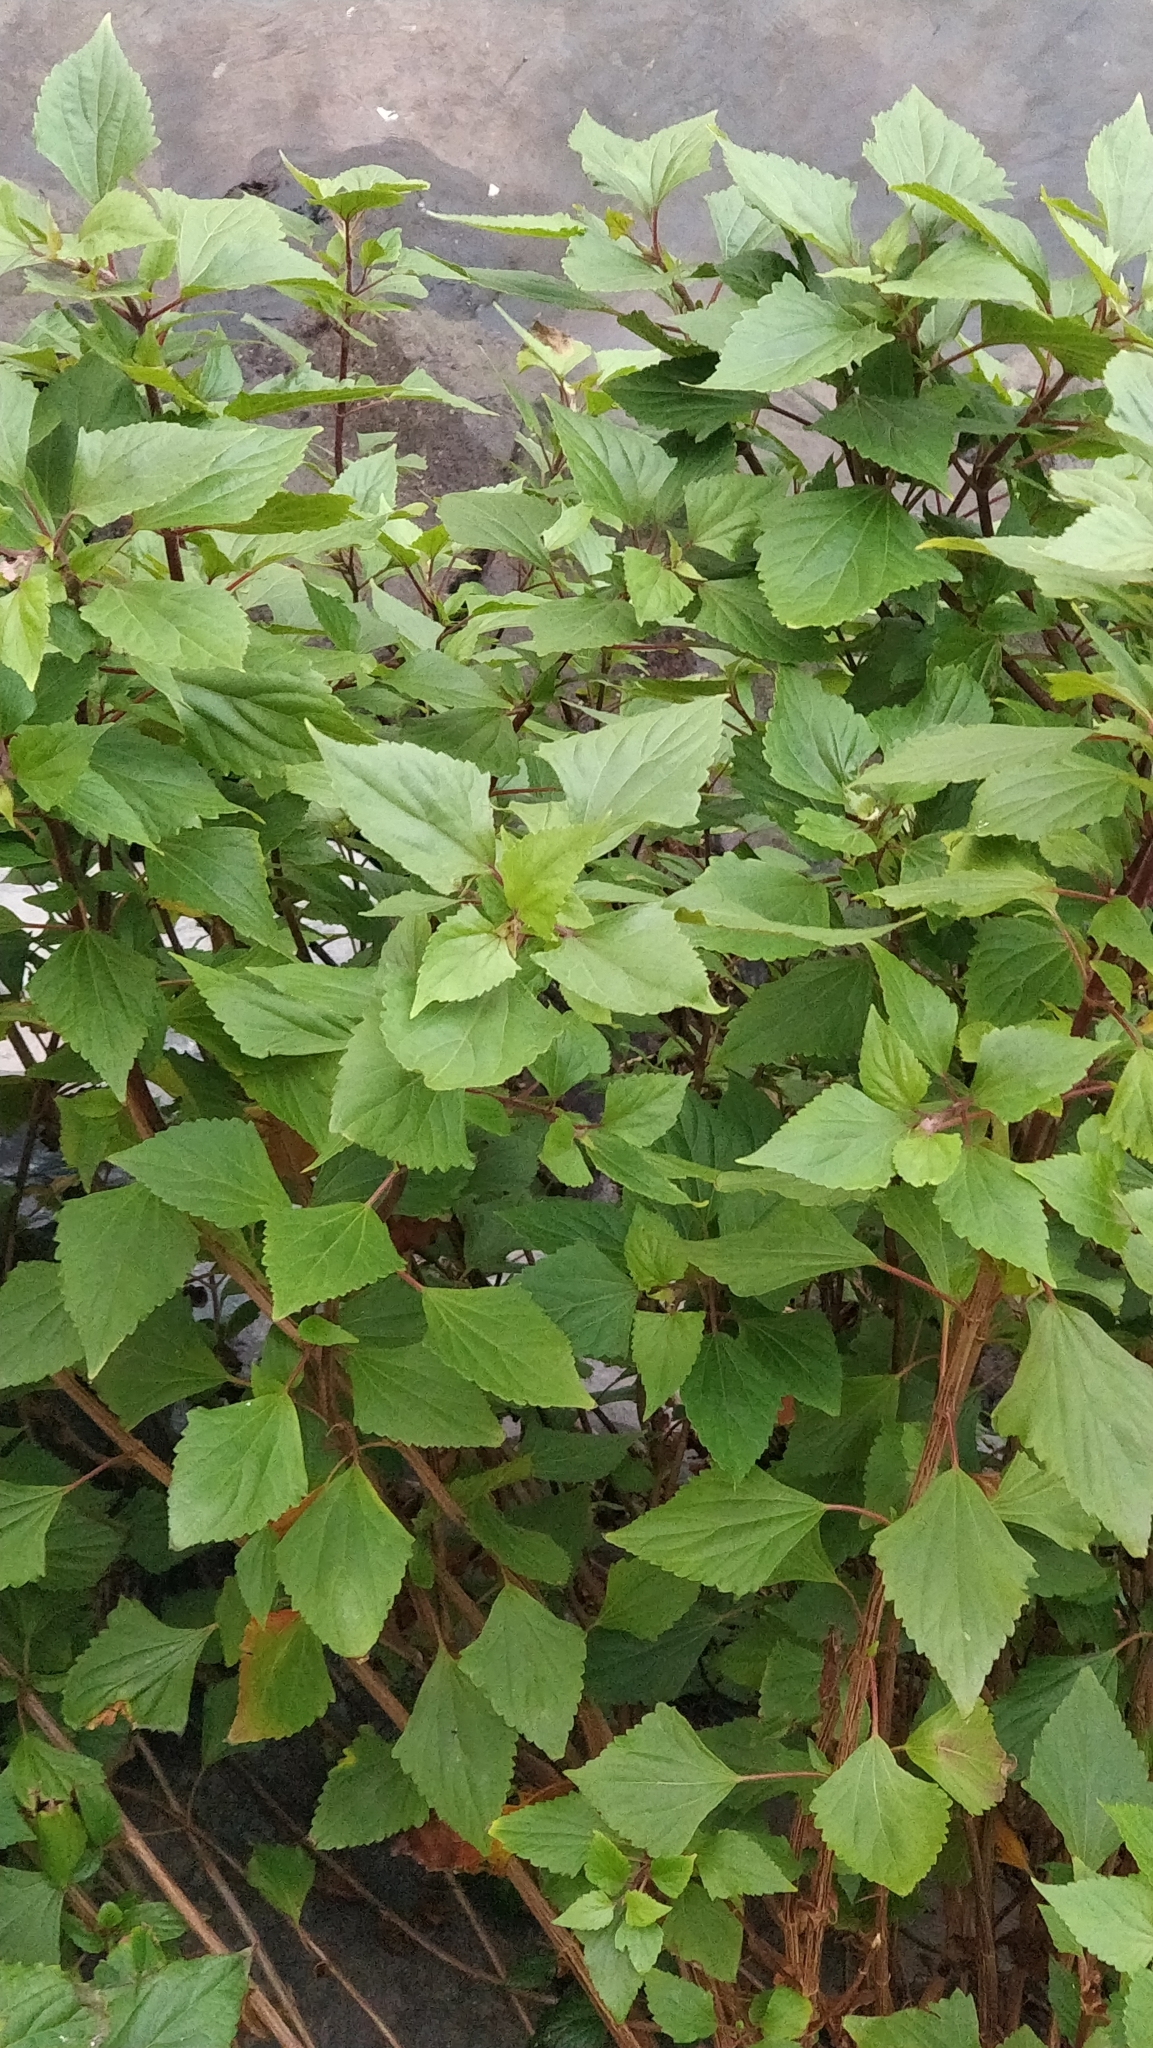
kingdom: Plantae
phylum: Tracheophyta
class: Magnoliopsida
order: Asterales
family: Asteraceae
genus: Ageratina
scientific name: Ageratina adenophora
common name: Sticky snakeroot
